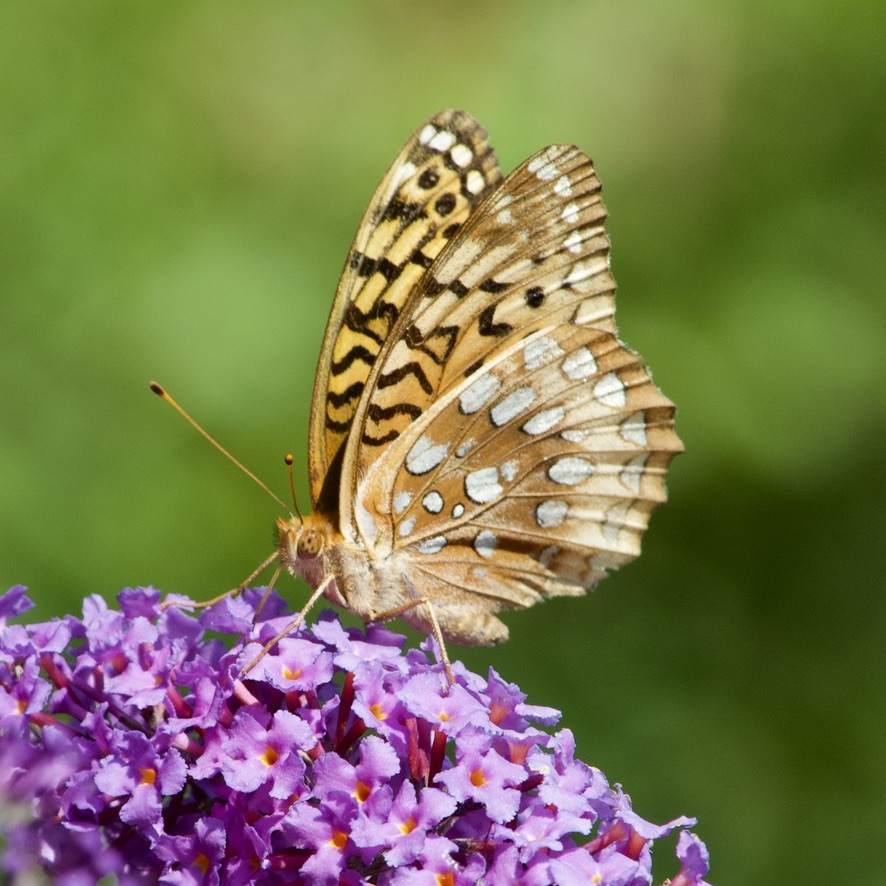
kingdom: Animalia
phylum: Arthropoda
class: Insecta
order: Lepidoptera
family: Nymphalidae
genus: Speyeria
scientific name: Speyeria cybele
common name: Great spangled fritillary
